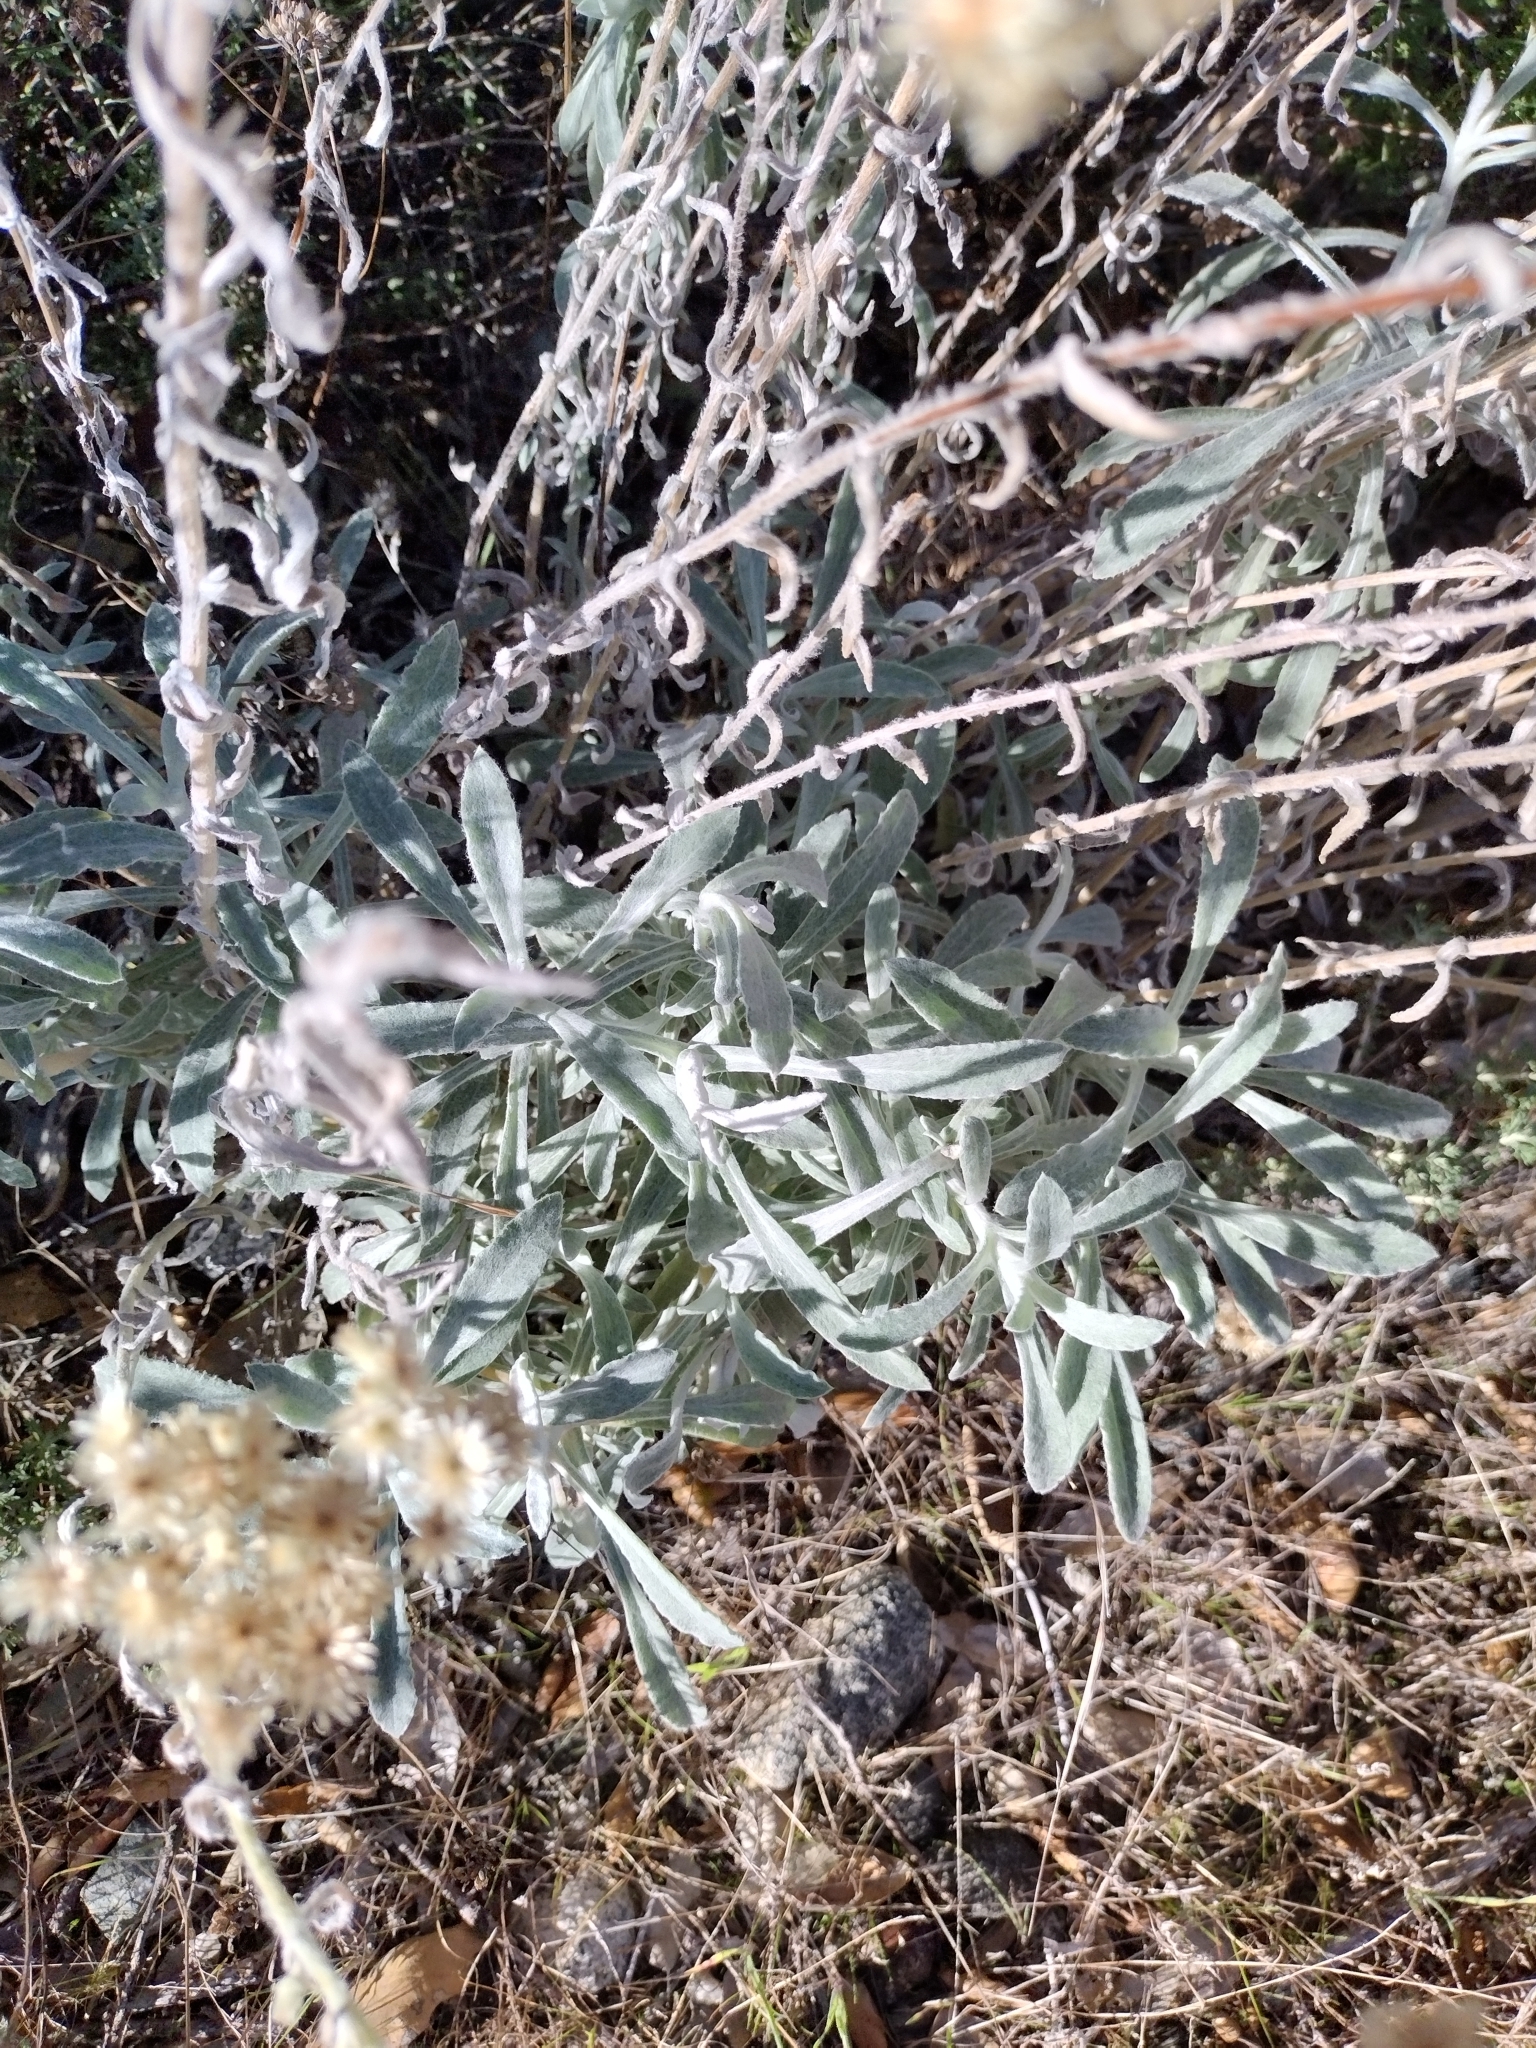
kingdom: Plantae
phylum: Tracheophyta
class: Magnoliopsida
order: Asterales
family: Asteraceae
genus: Pseudognaphalium
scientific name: Pseudognaphalium microcephalum
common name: San diego rabbit-tobacco
